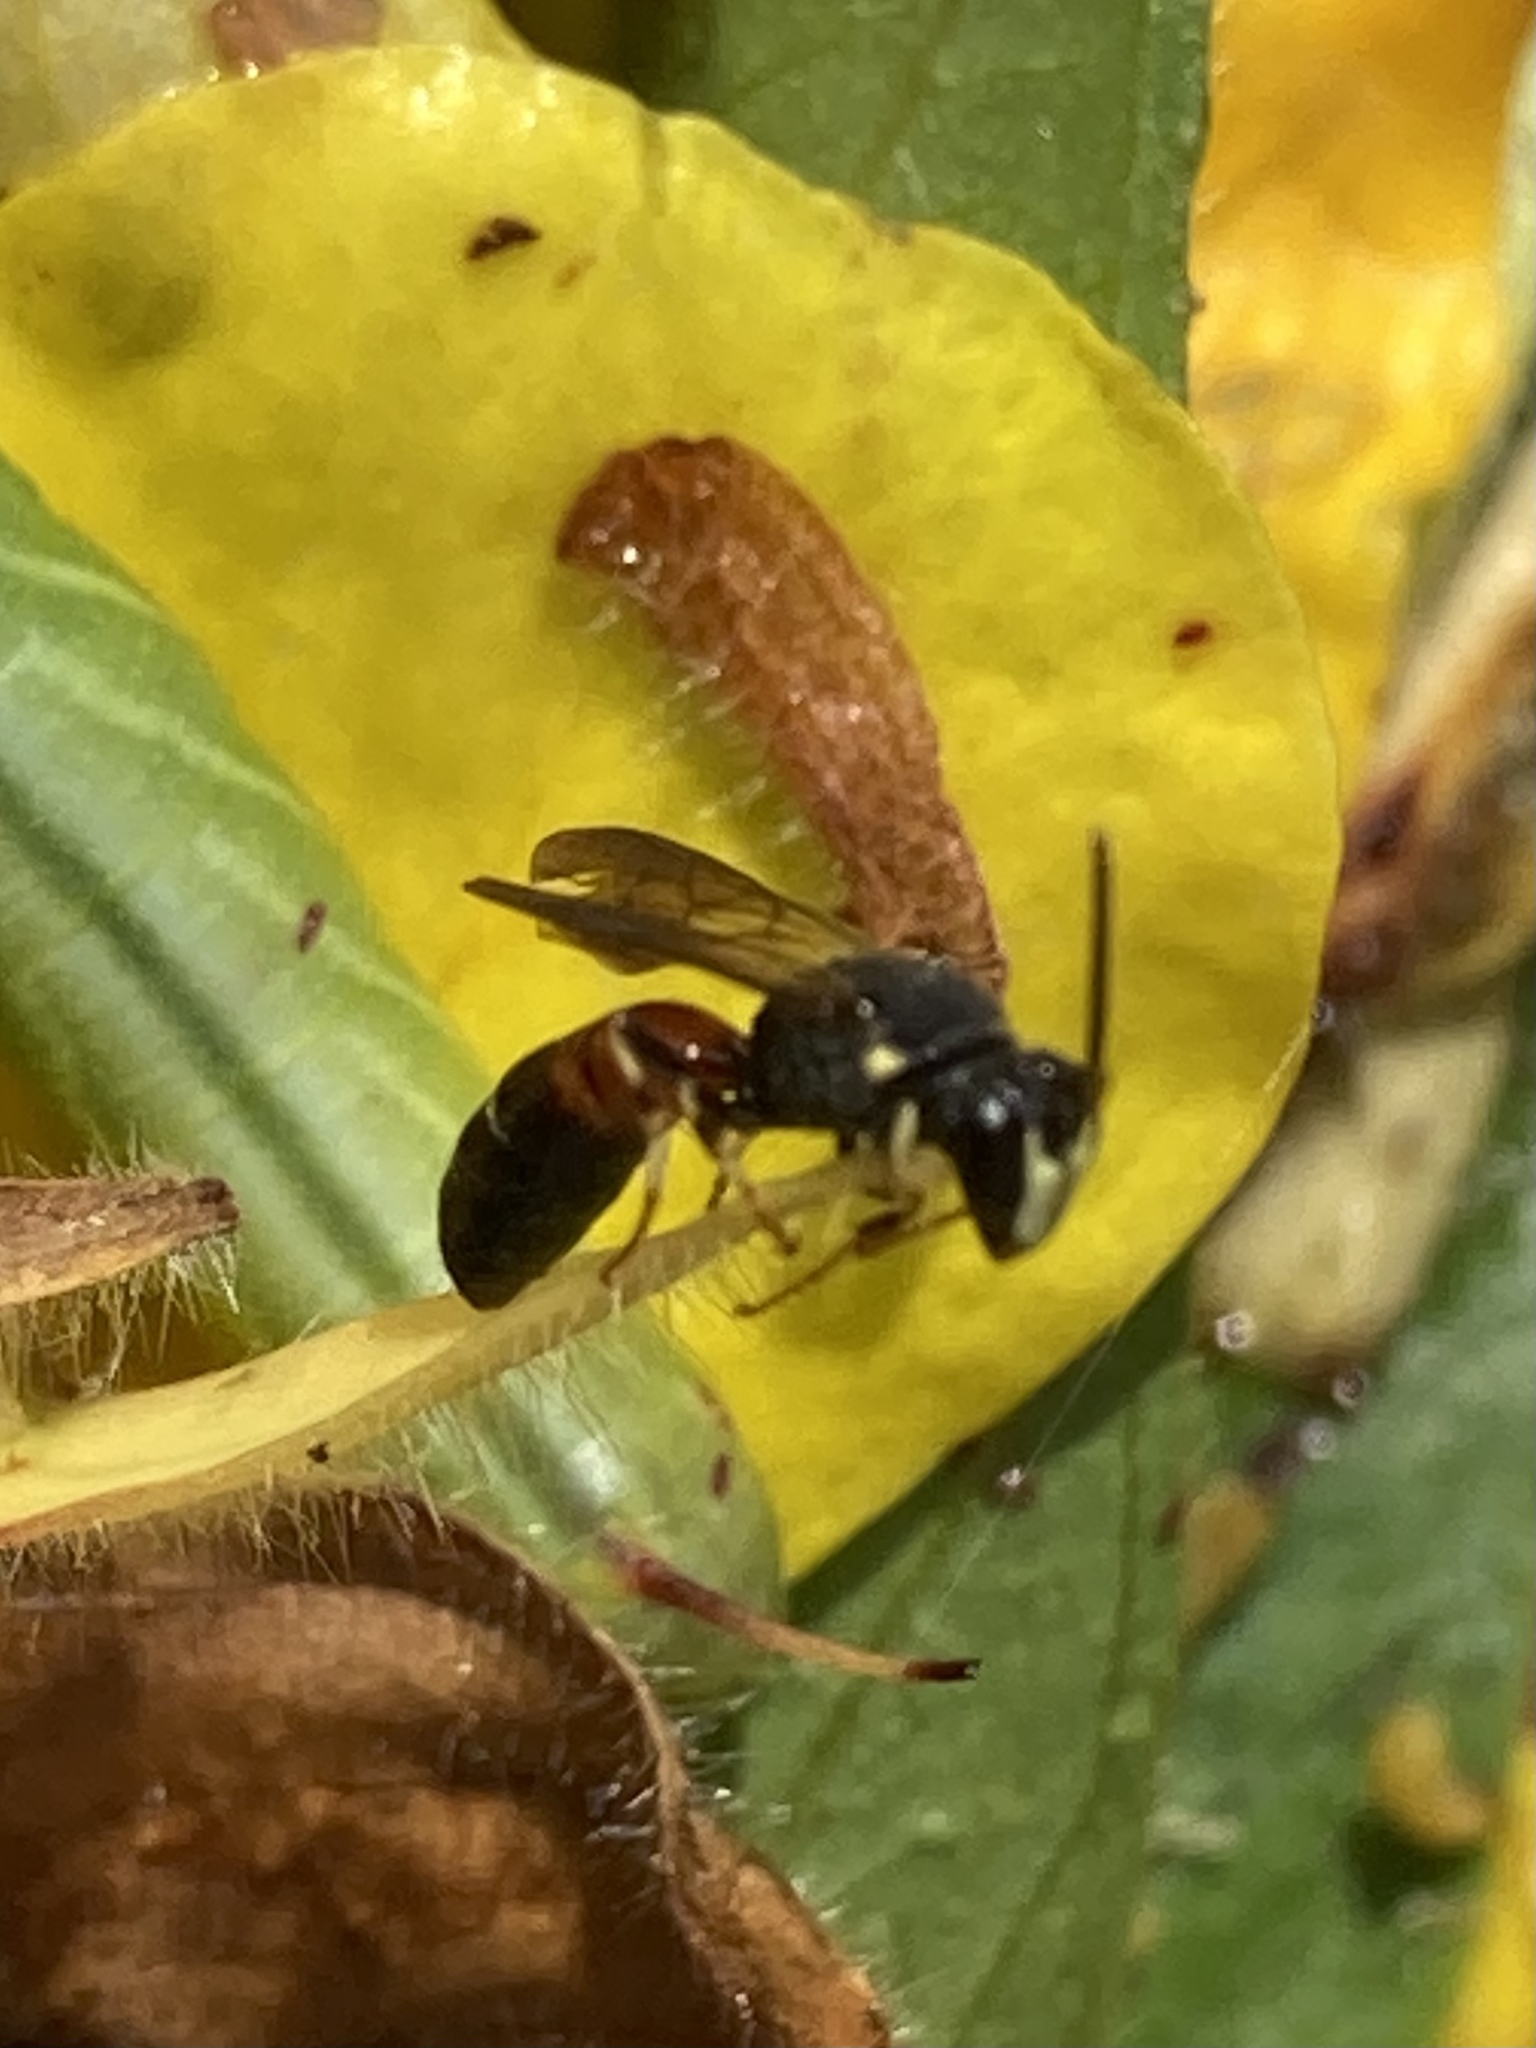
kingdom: Animalia
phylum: Arthropoda
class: Insecta
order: Hymenoptera
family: Colletidae
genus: Hylaeus
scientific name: Hylaeus nelumbonis
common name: Nelumbo masked bee
